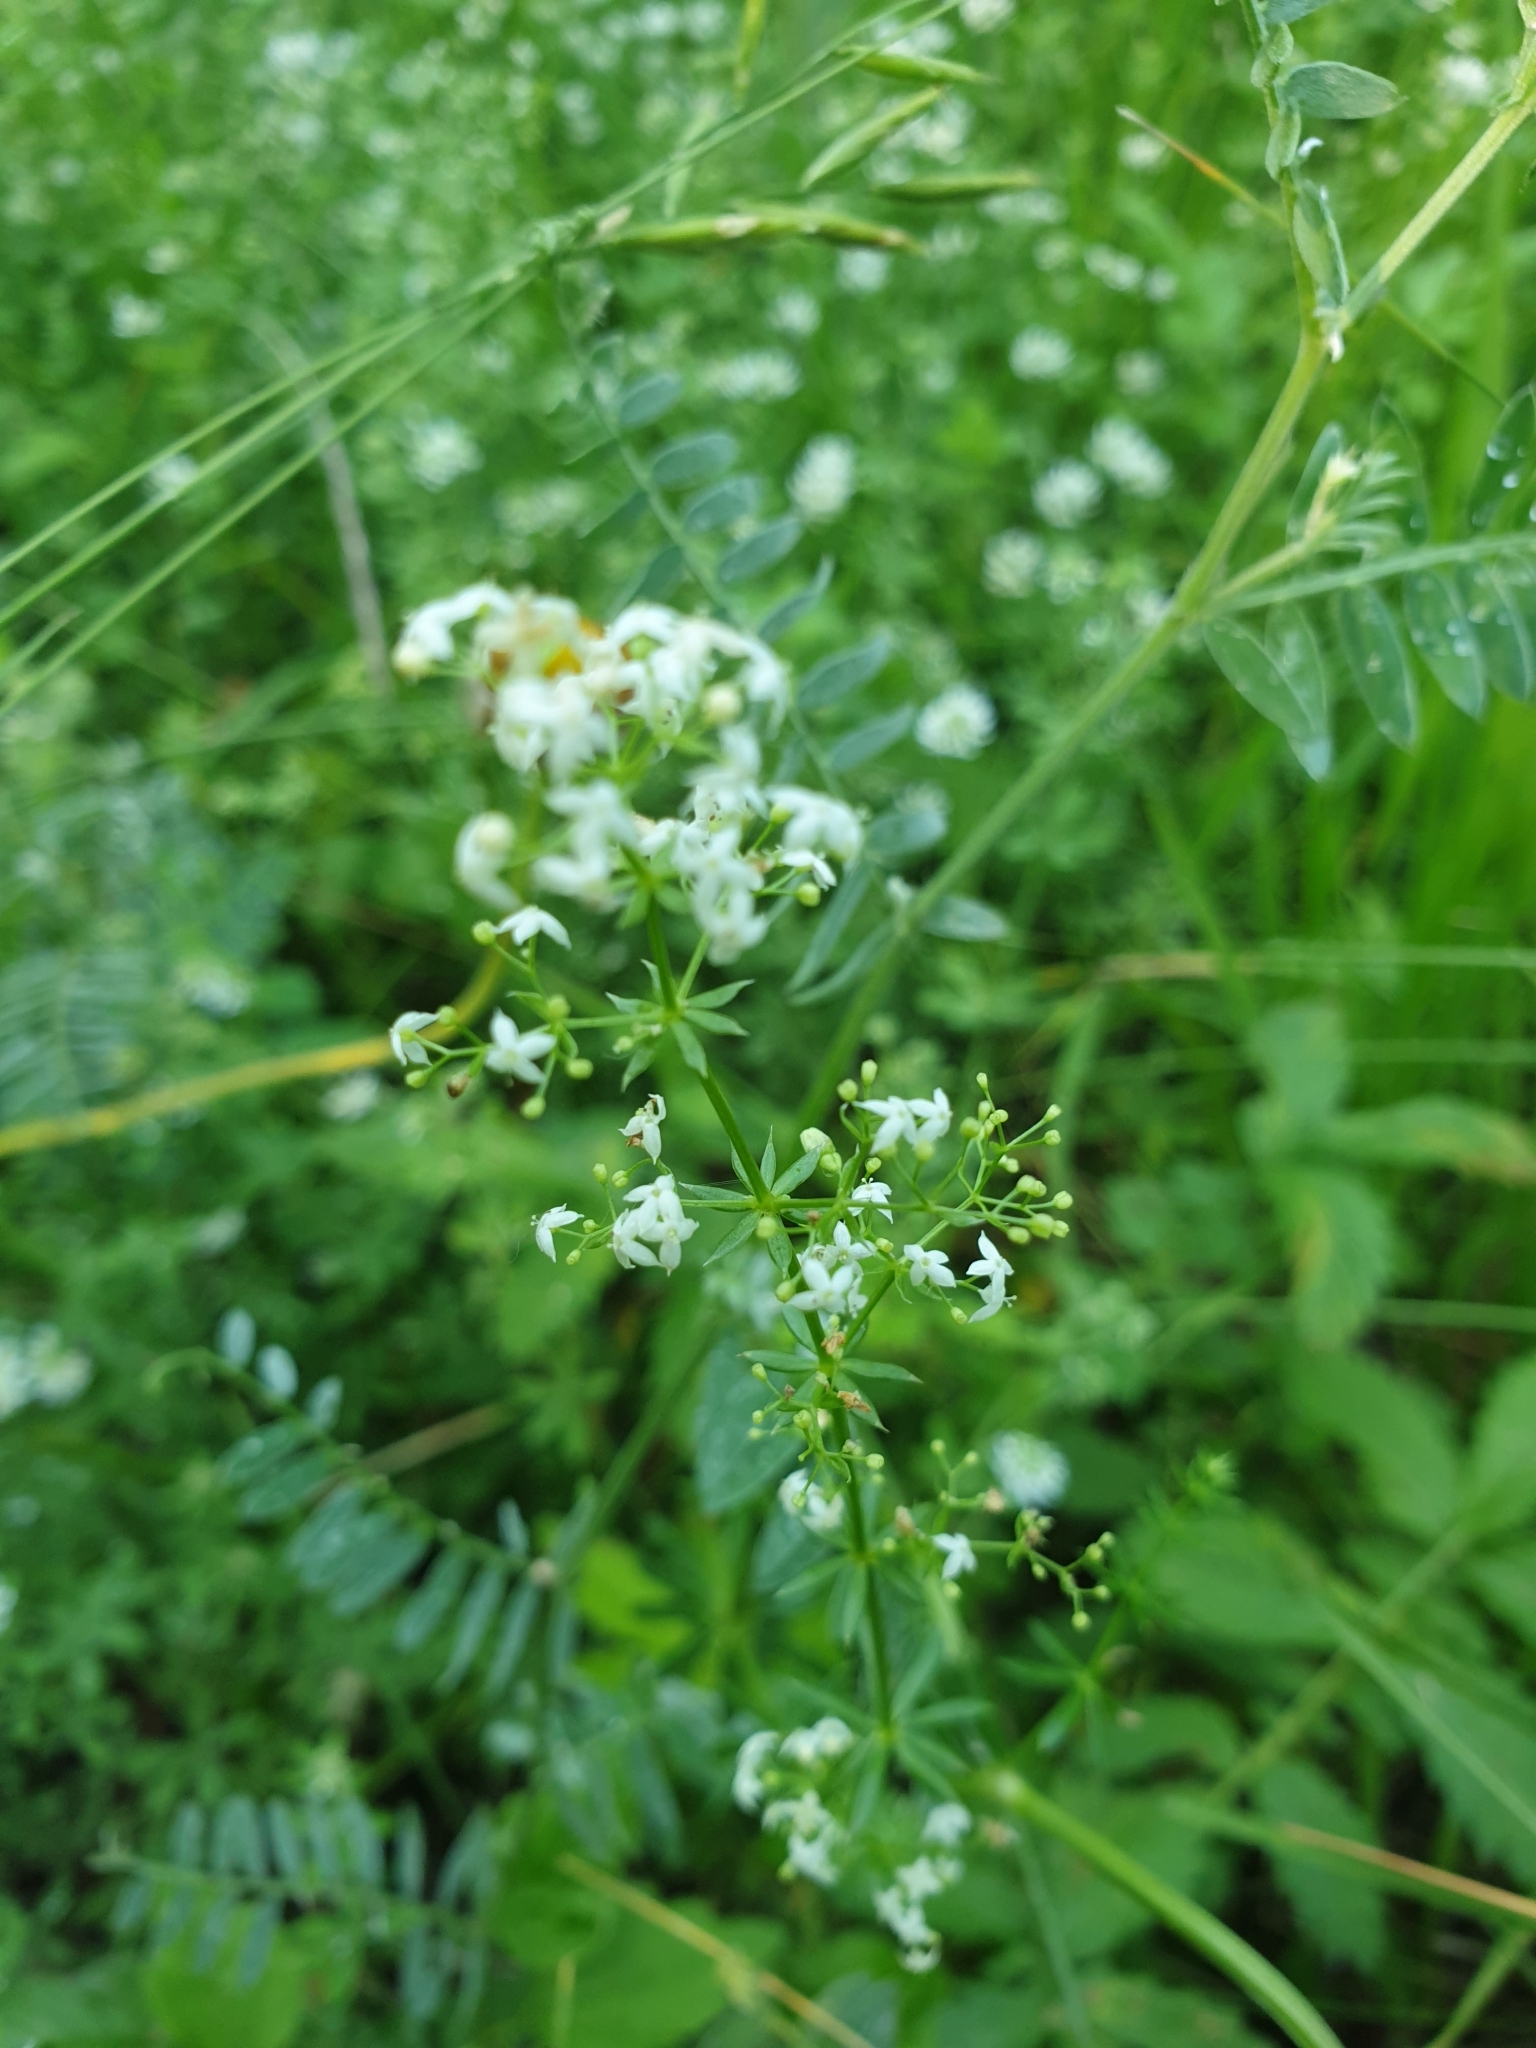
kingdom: Plantae
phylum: Tracheophyta
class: Magnoliopsida
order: Gentianales
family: Rubiaceae
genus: Galium
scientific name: Galium mollugo
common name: Hedge bedstraw
